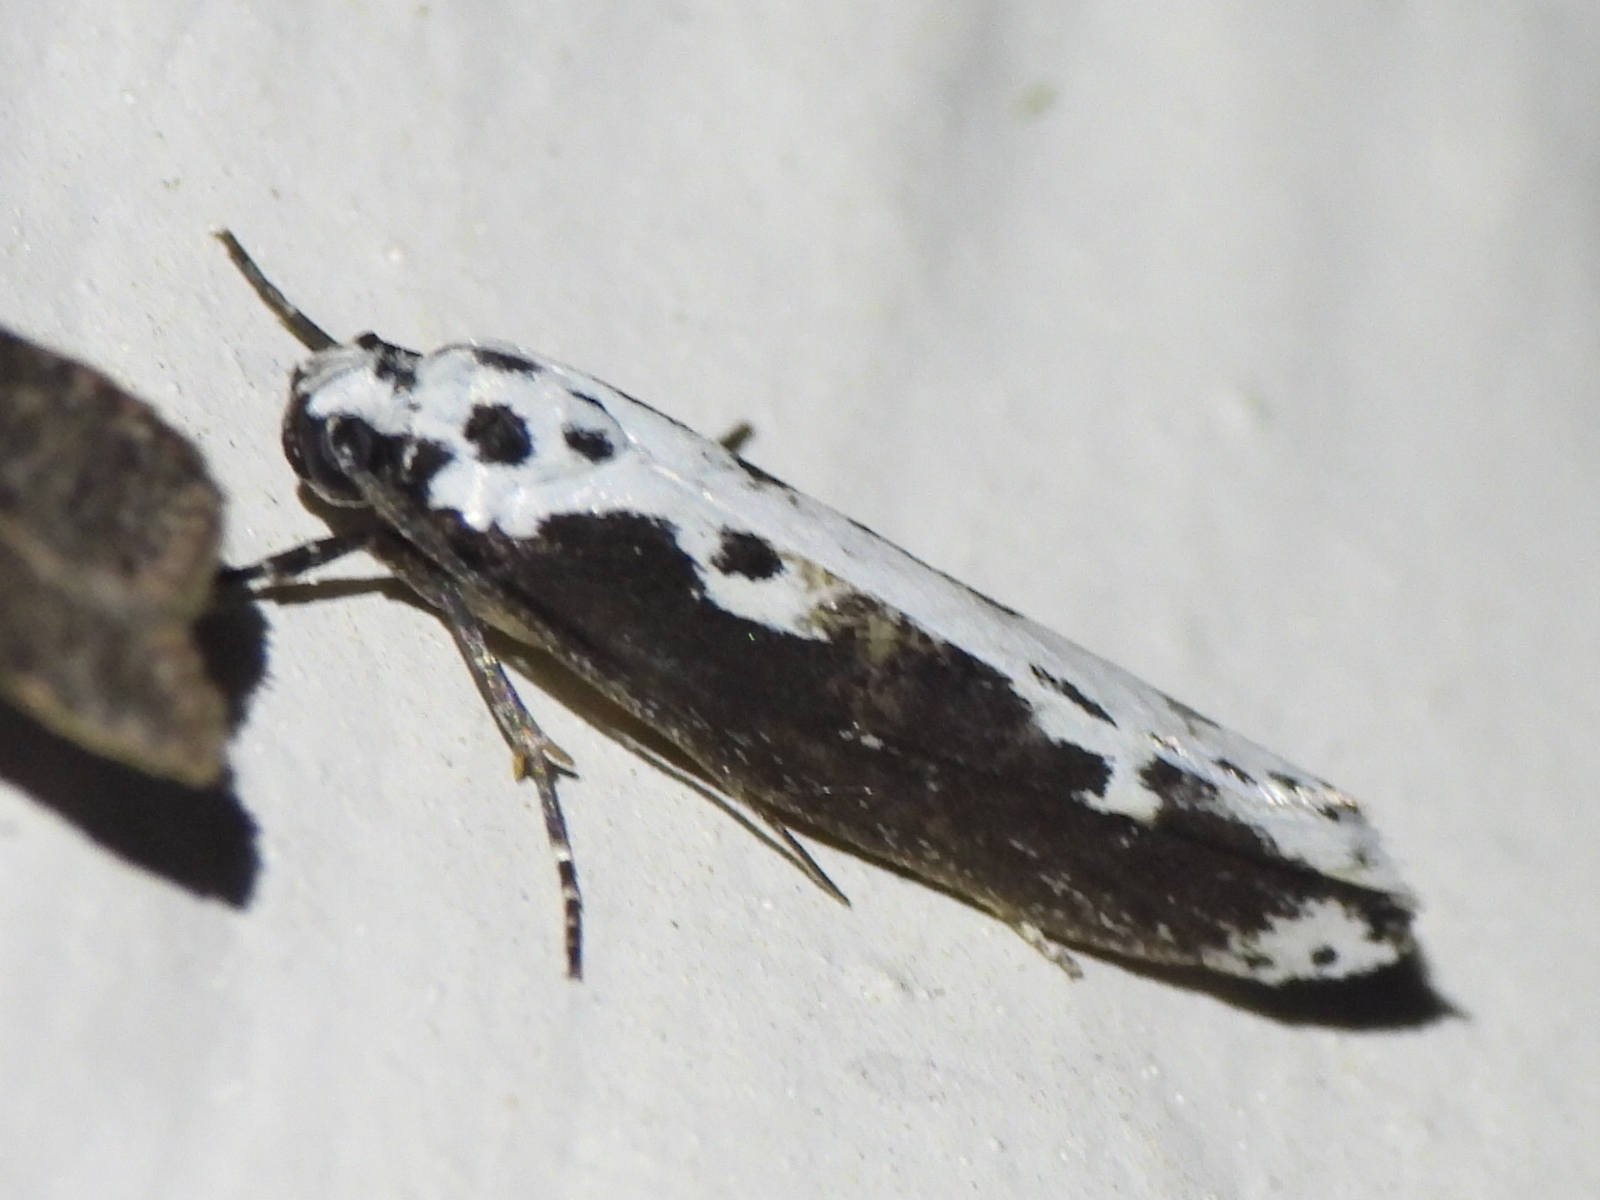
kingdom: Animalia
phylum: Arthropoda
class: Insecta
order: Lepidoptera
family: Ethmiidae
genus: Ethmia
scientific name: Ethmia semilugens
